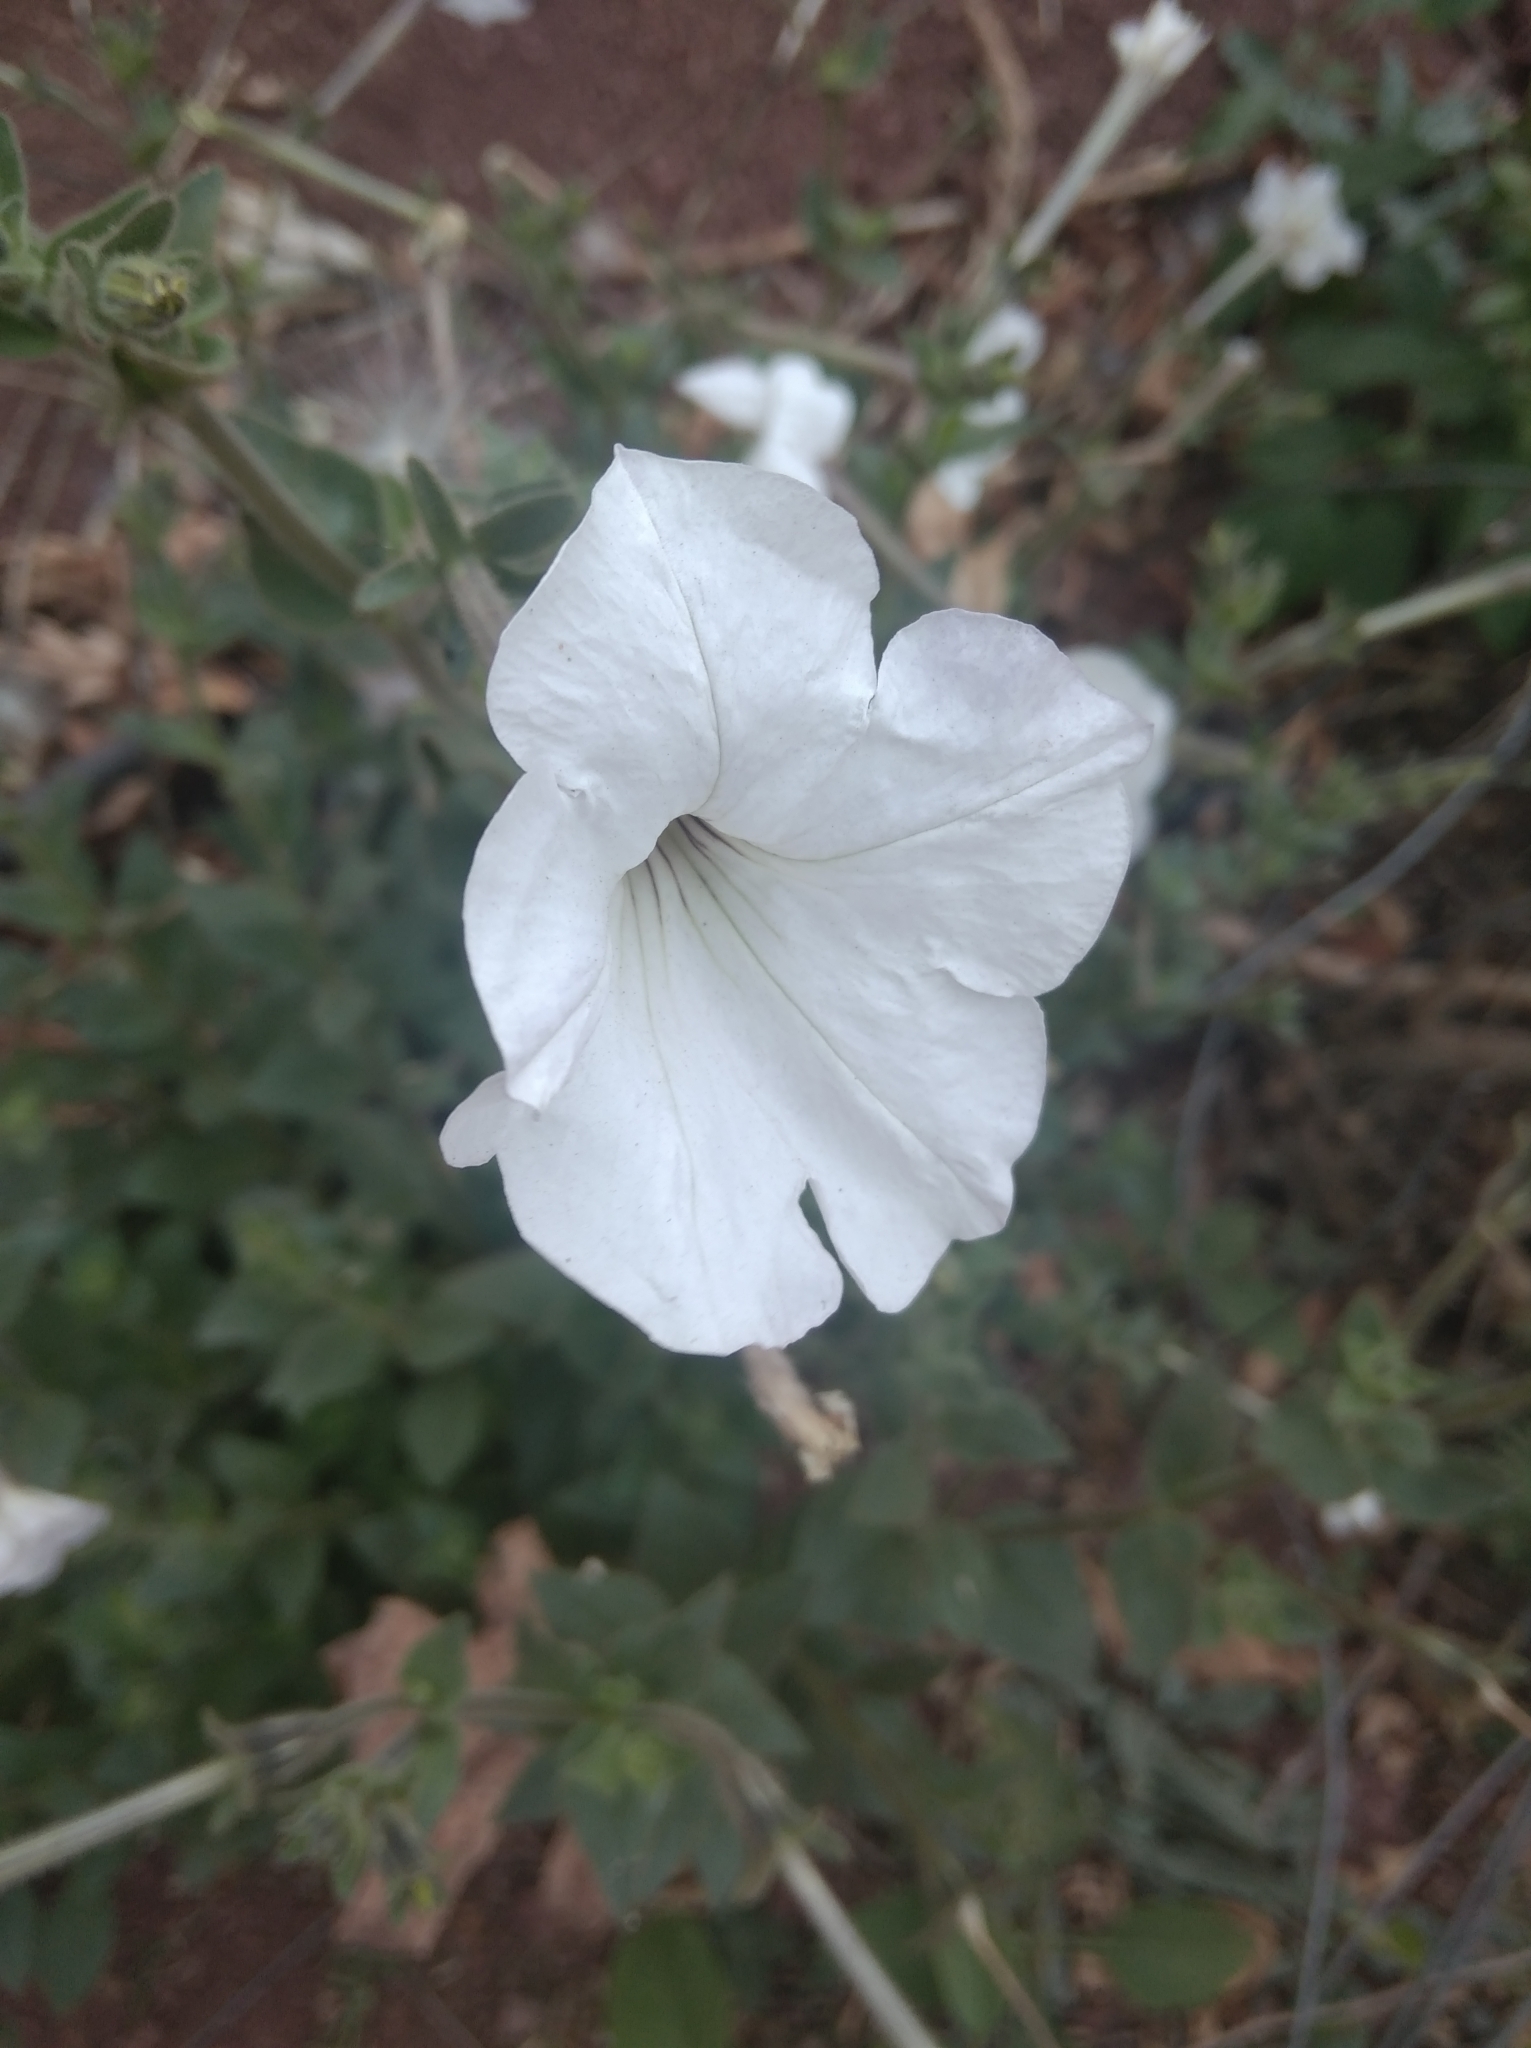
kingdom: Plantae
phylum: Tracheophyta
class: Magnoliopsida
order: Solanales
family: Solanaceae
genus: Petunia
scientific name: Petunia axillaris
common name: Large white petunia
